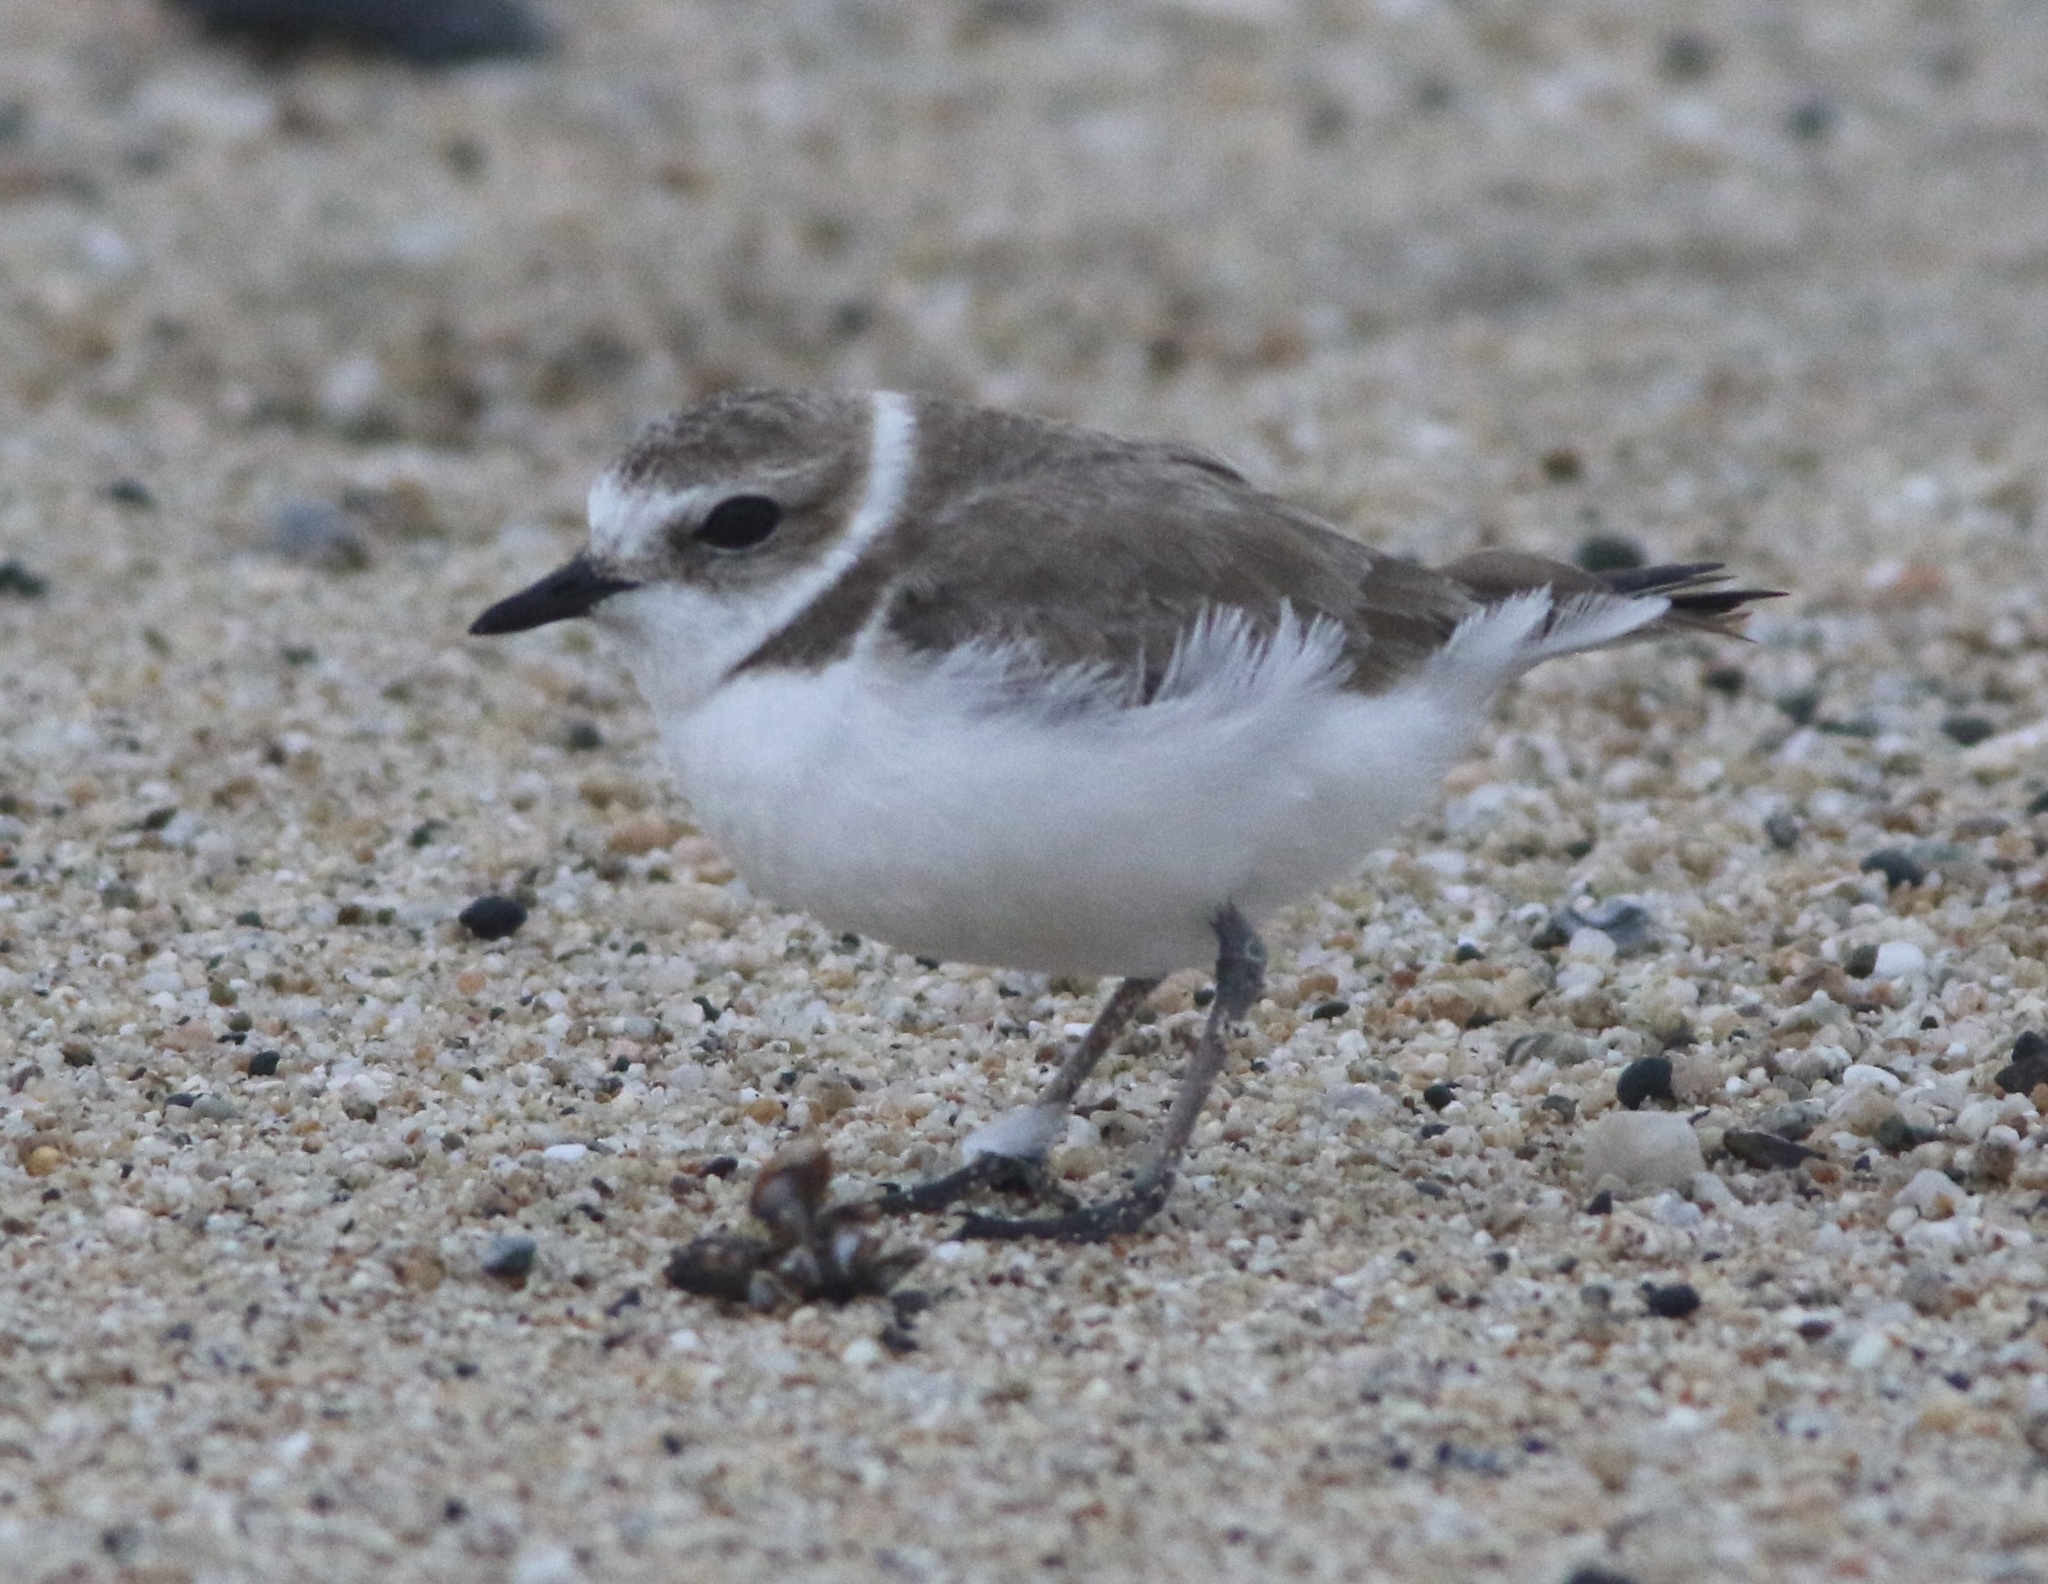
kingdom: Animalia
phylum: Chordata
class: Aves
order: Charadriiformes
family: Charadriidae
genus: Anarhynchus
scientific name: Anarhynchus
